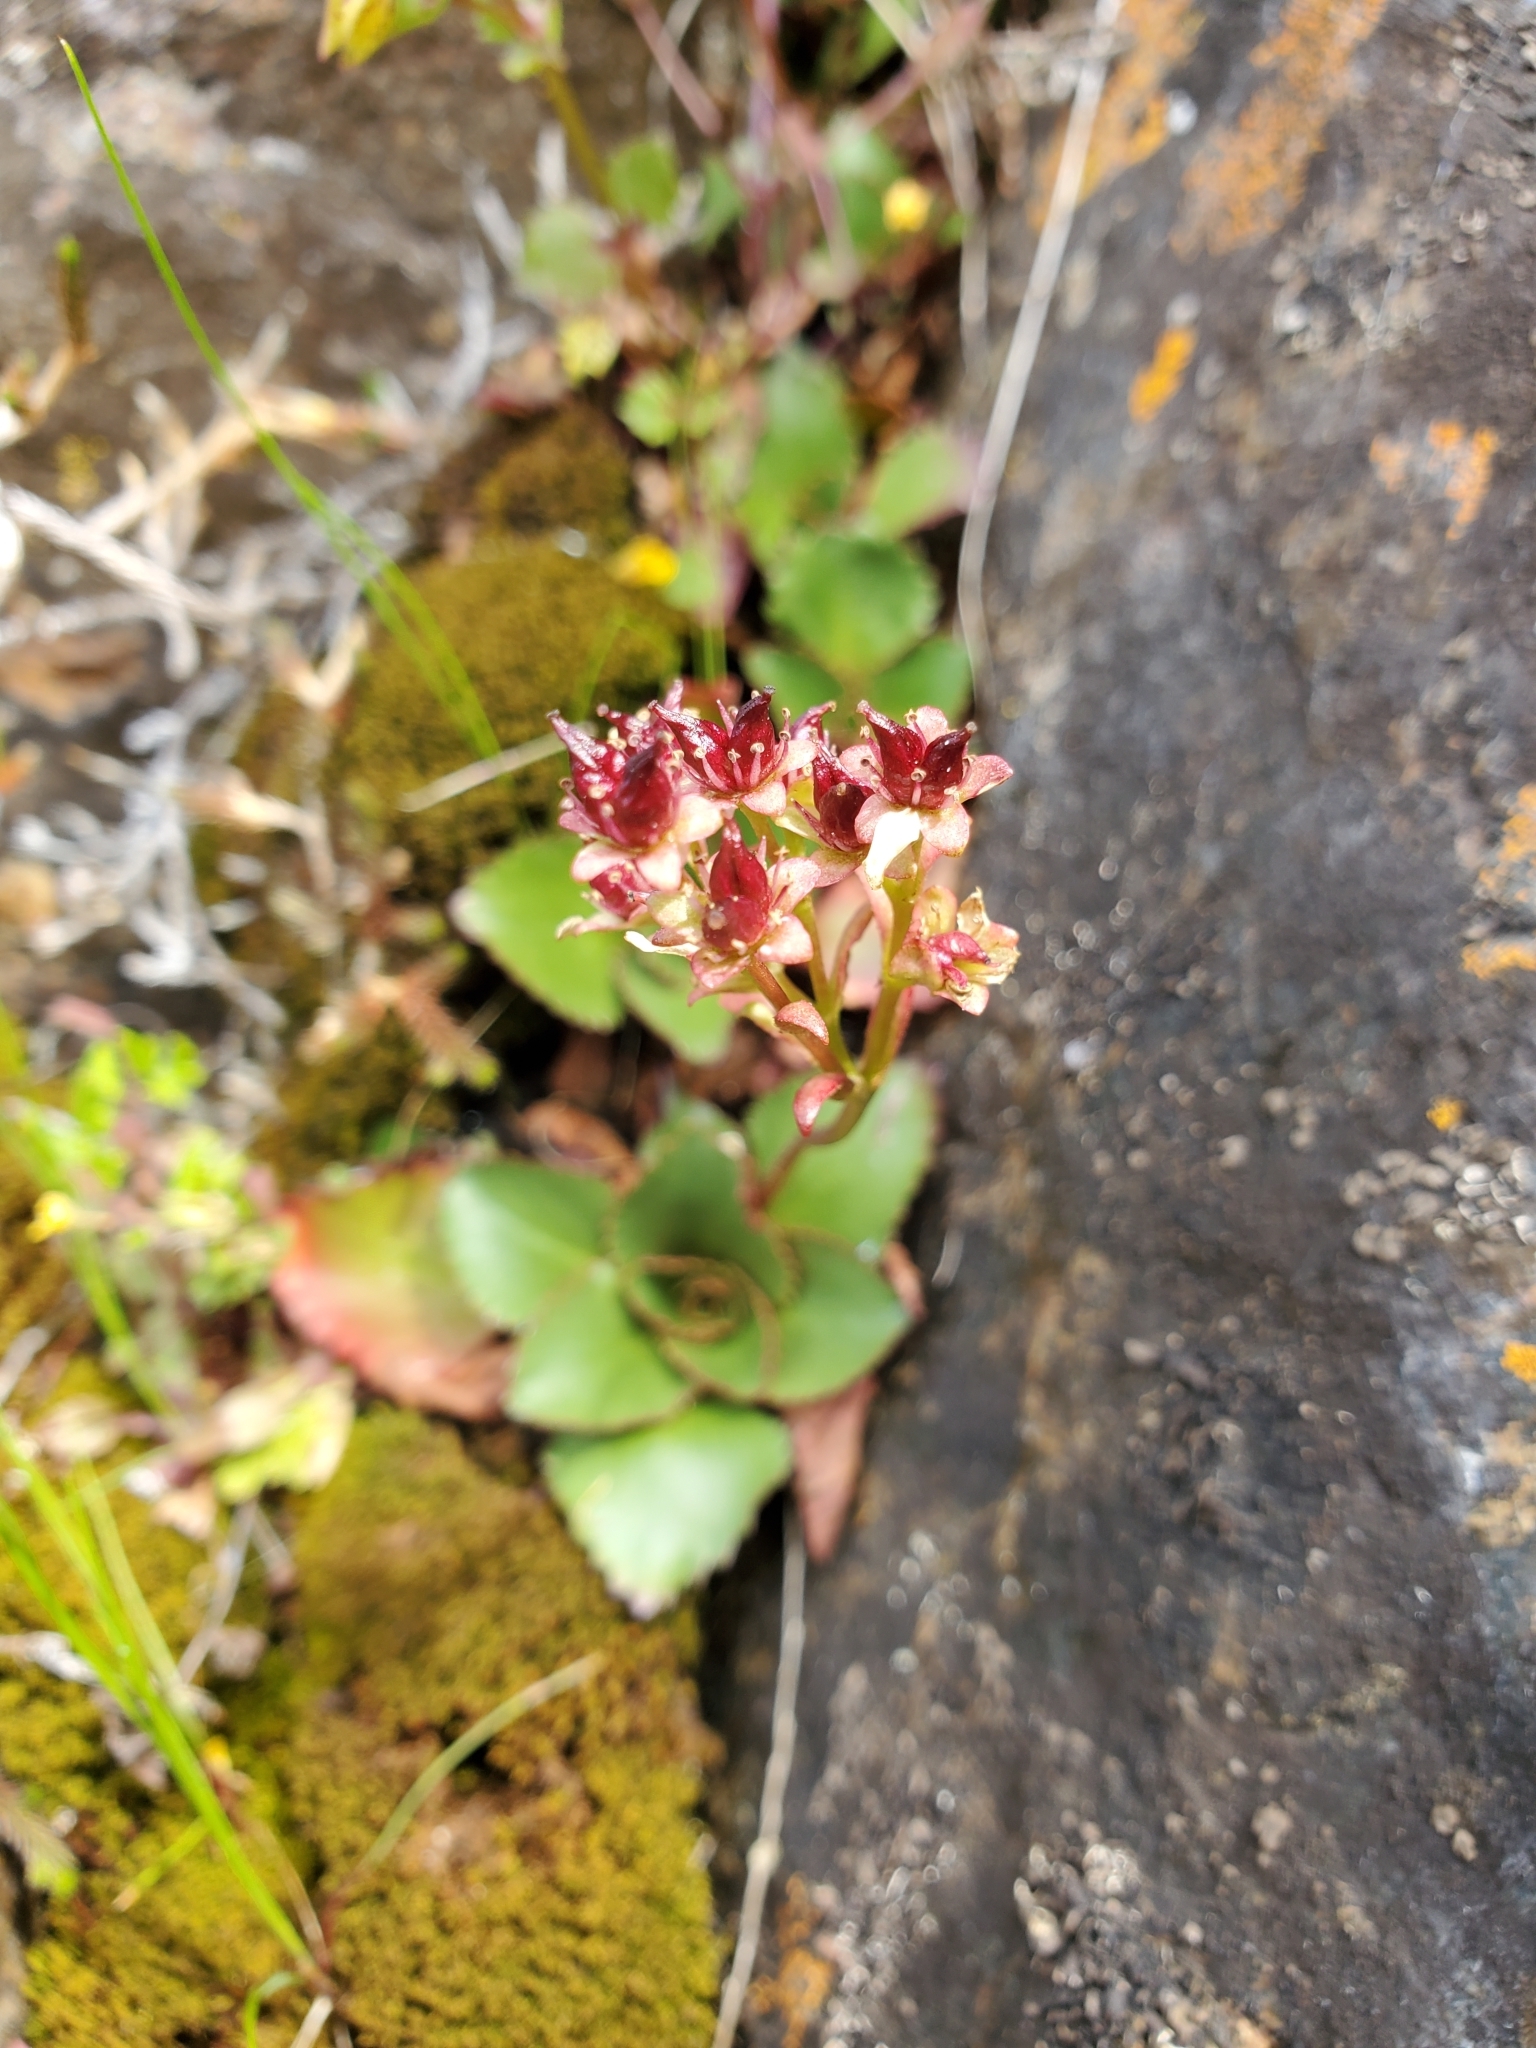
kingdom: Plantae
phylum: Tracheophyta
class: Magnoliopsida
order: Saxifragales
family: Saxifragaceae
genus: Micranthes
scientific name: Micranthes rufidula
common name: Rustyhair saxifrage
